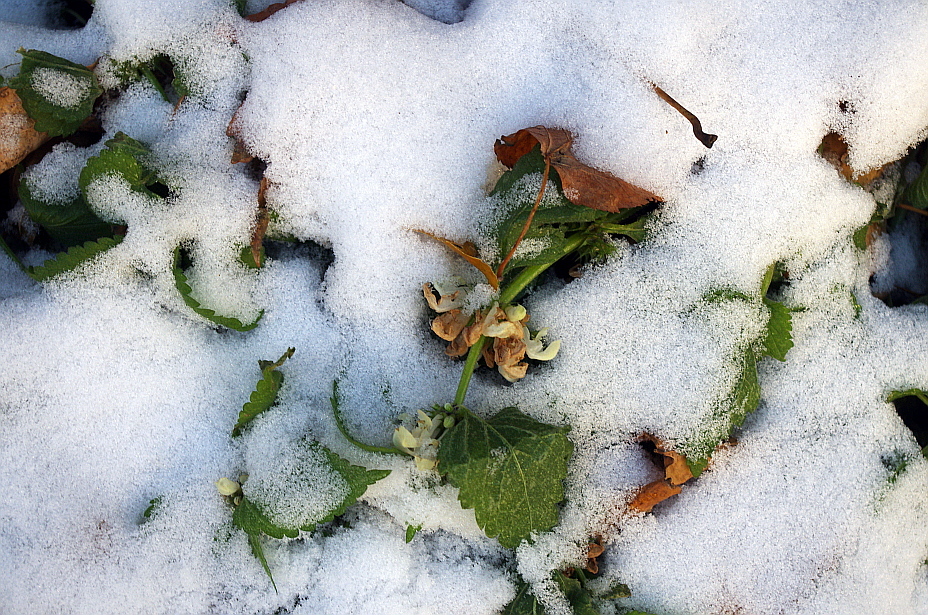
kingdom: Plantae
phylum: Tracheophyta
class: Magnoliopsida
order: Lamiales
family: Lamiaceae
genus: Lamium
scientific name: Lamium album
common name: White dead-nettle
